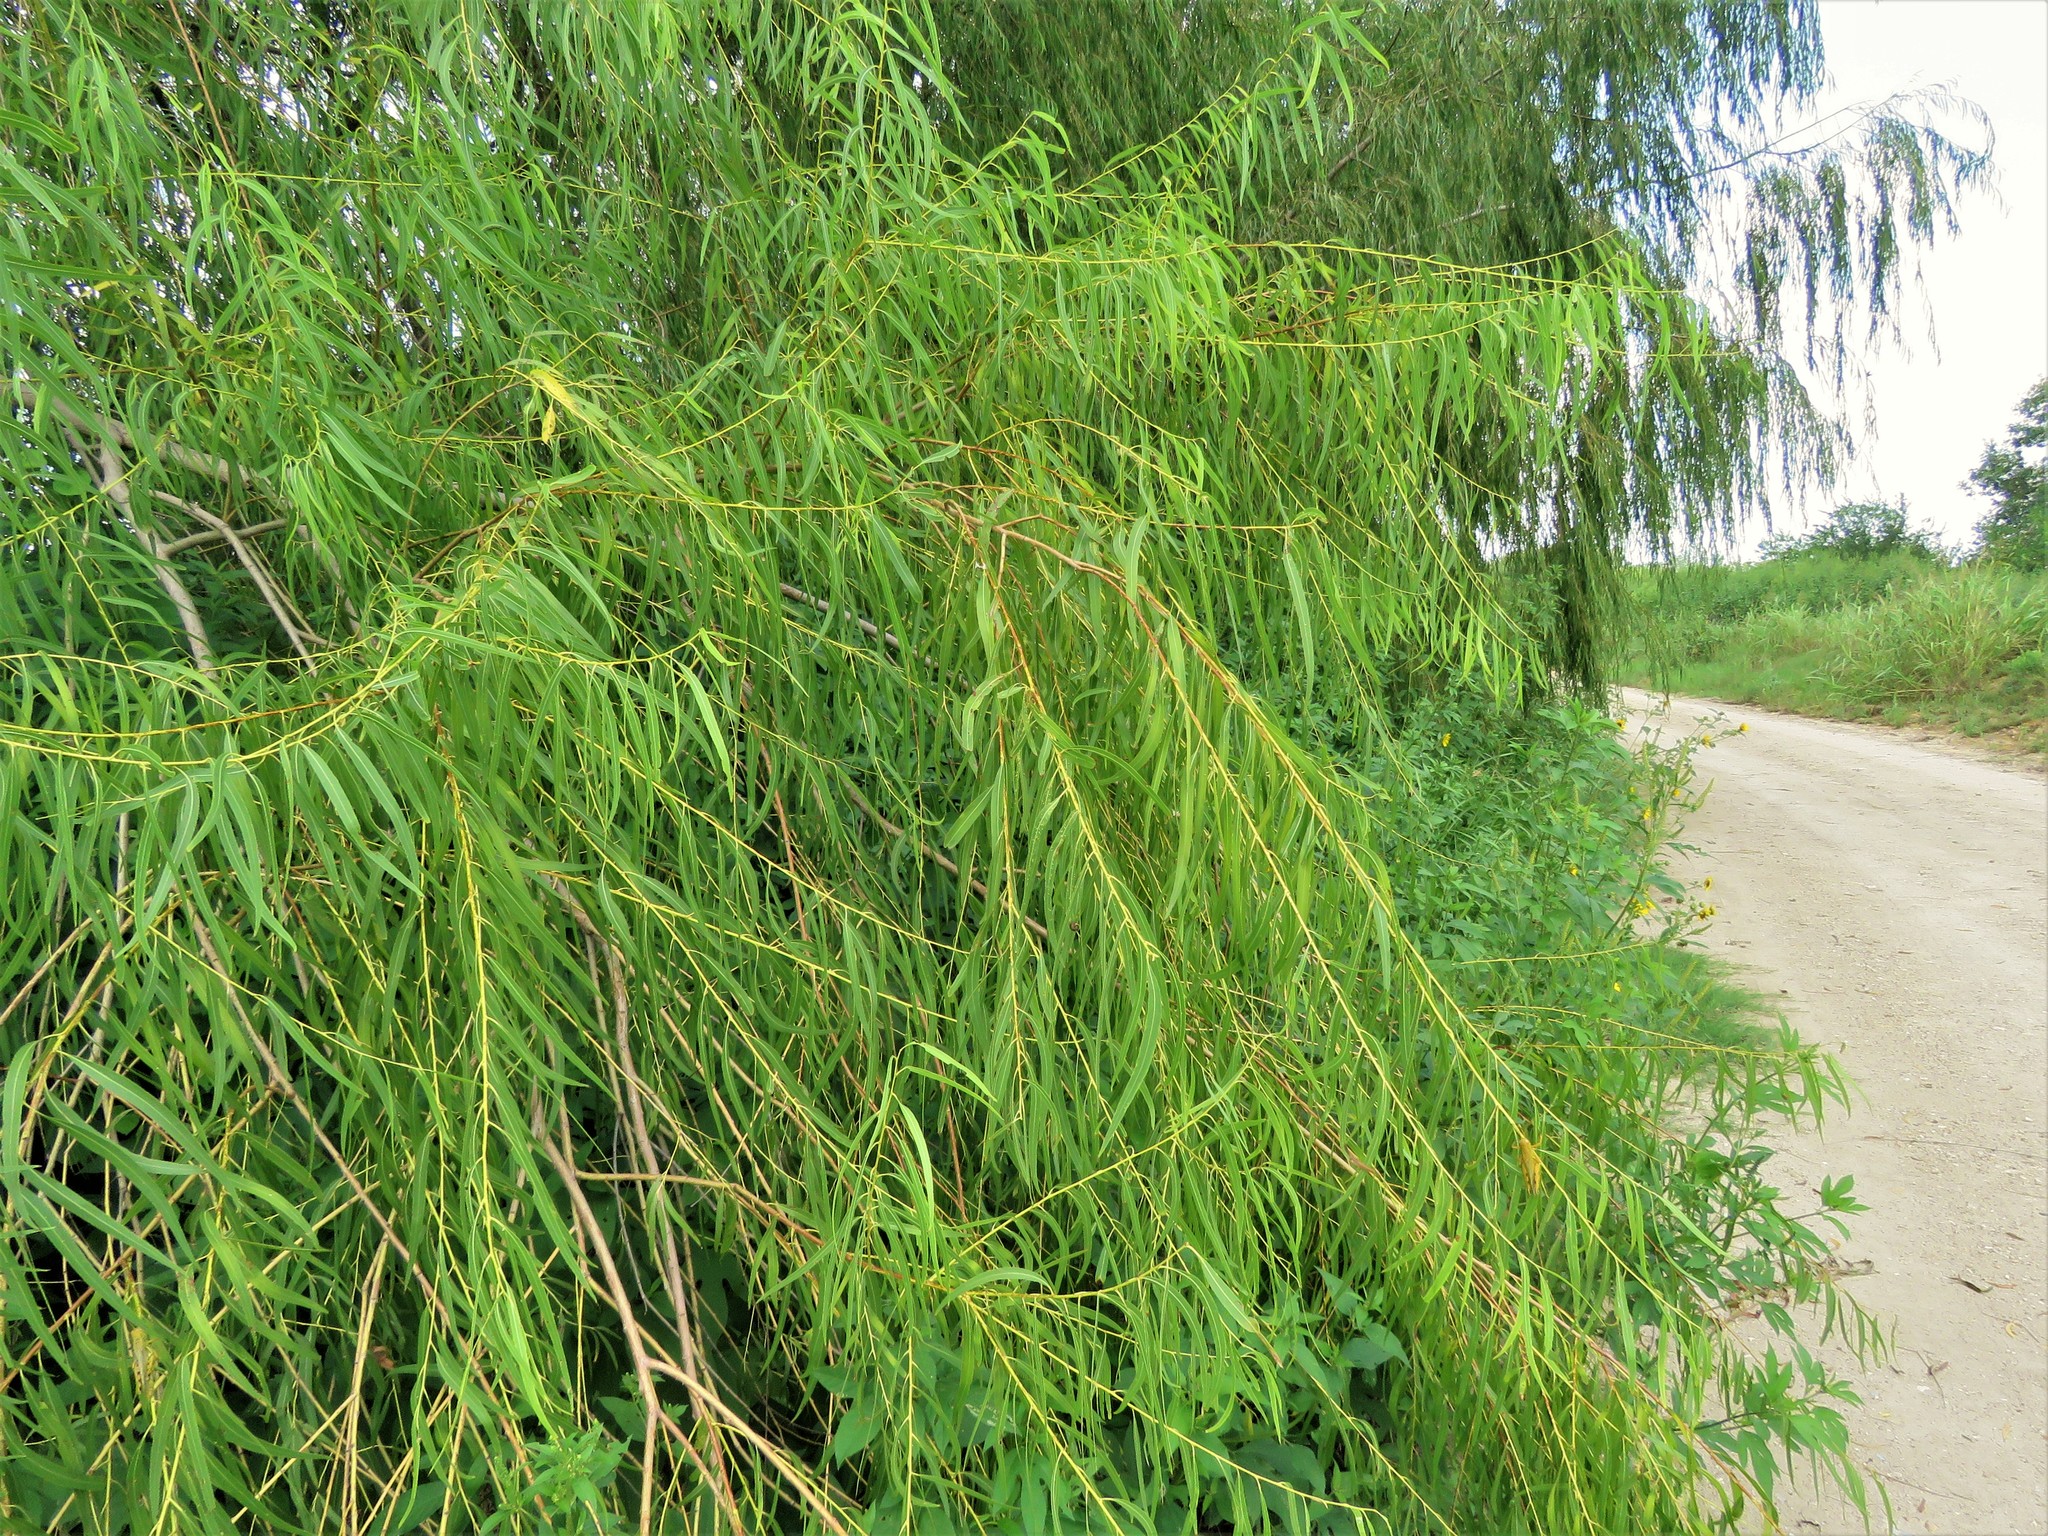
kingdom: Plantae
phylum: Tracheophyta
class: Magnoliopsida
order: Malpighiales
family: Salicaceae
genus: Salix
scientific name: Salix nigra
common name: Black willow
